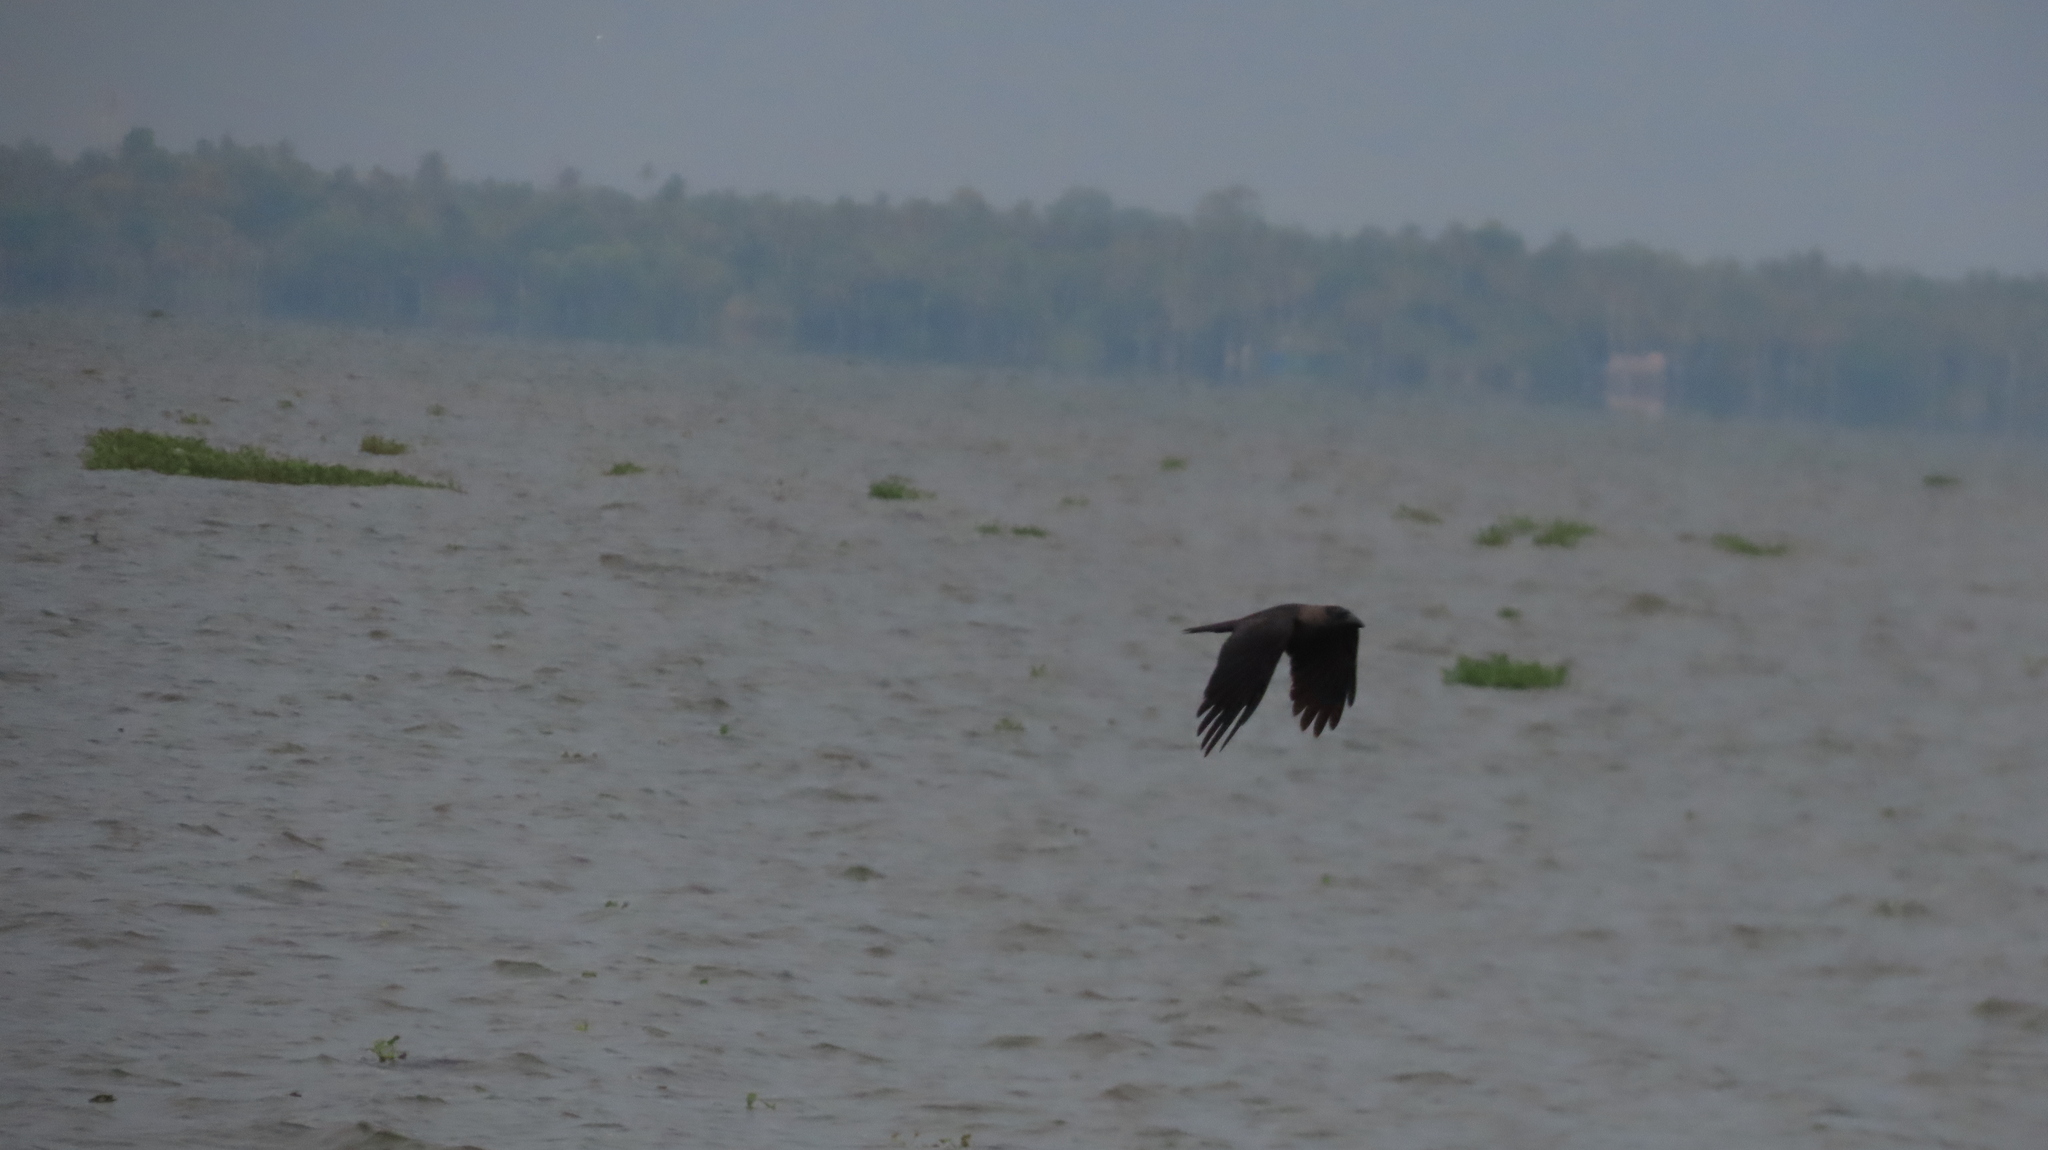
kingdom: Animalia
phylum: Chordata
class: Aves
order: Passeriformes
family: Corvidae
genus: Corvus
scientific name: Corvus splendens
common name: House crow
